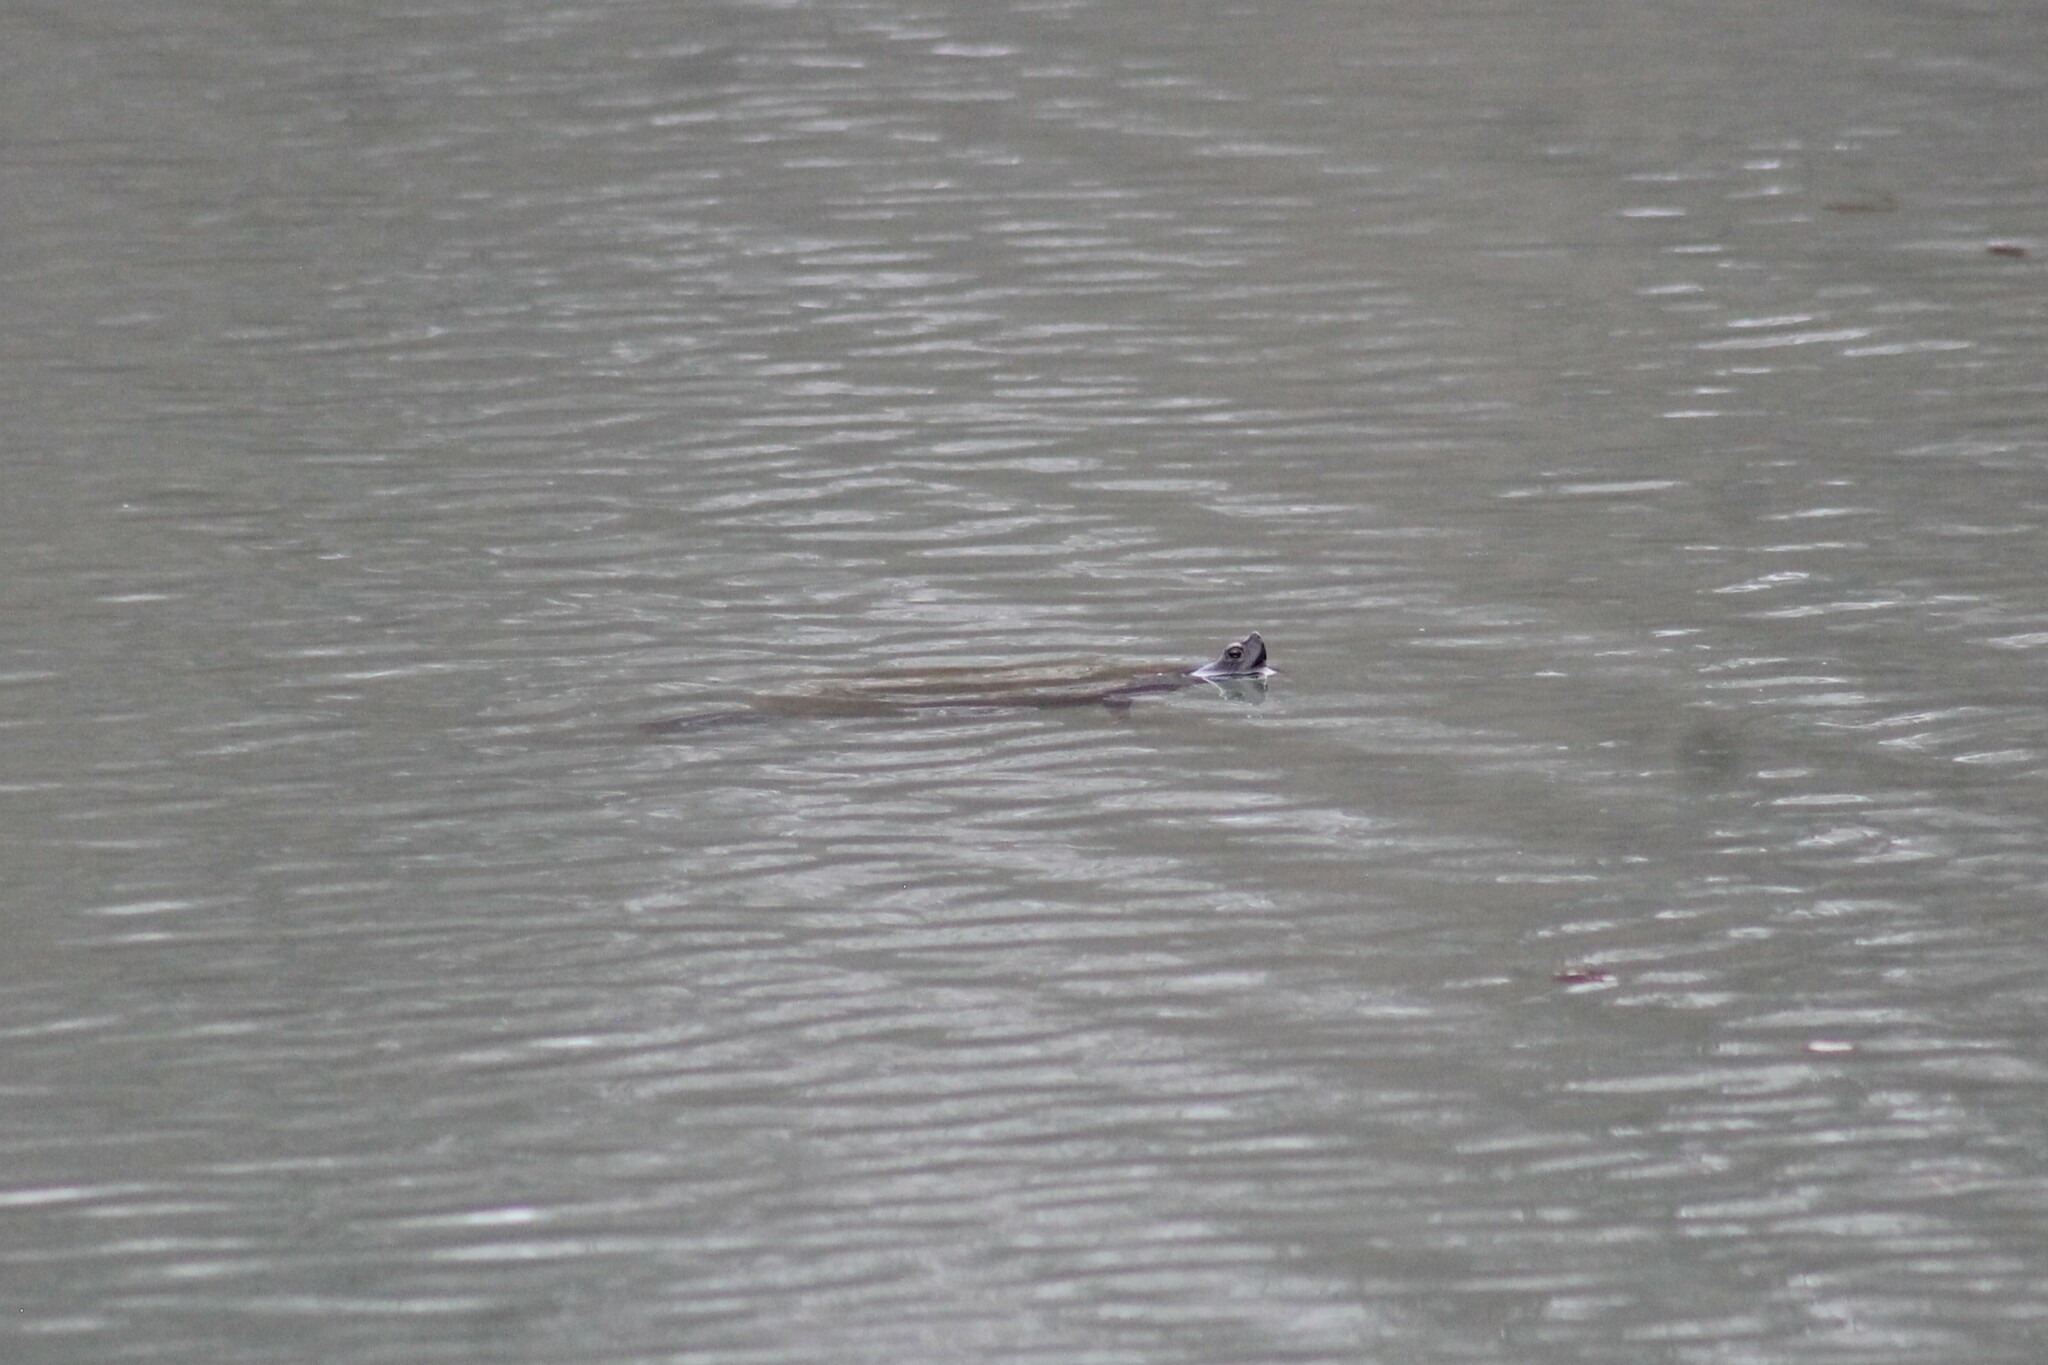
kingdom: Animalia
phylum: Chordata
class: Testudines
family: Emydidae
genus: Trachemys
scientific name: Trachemys scripta
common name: Slider
